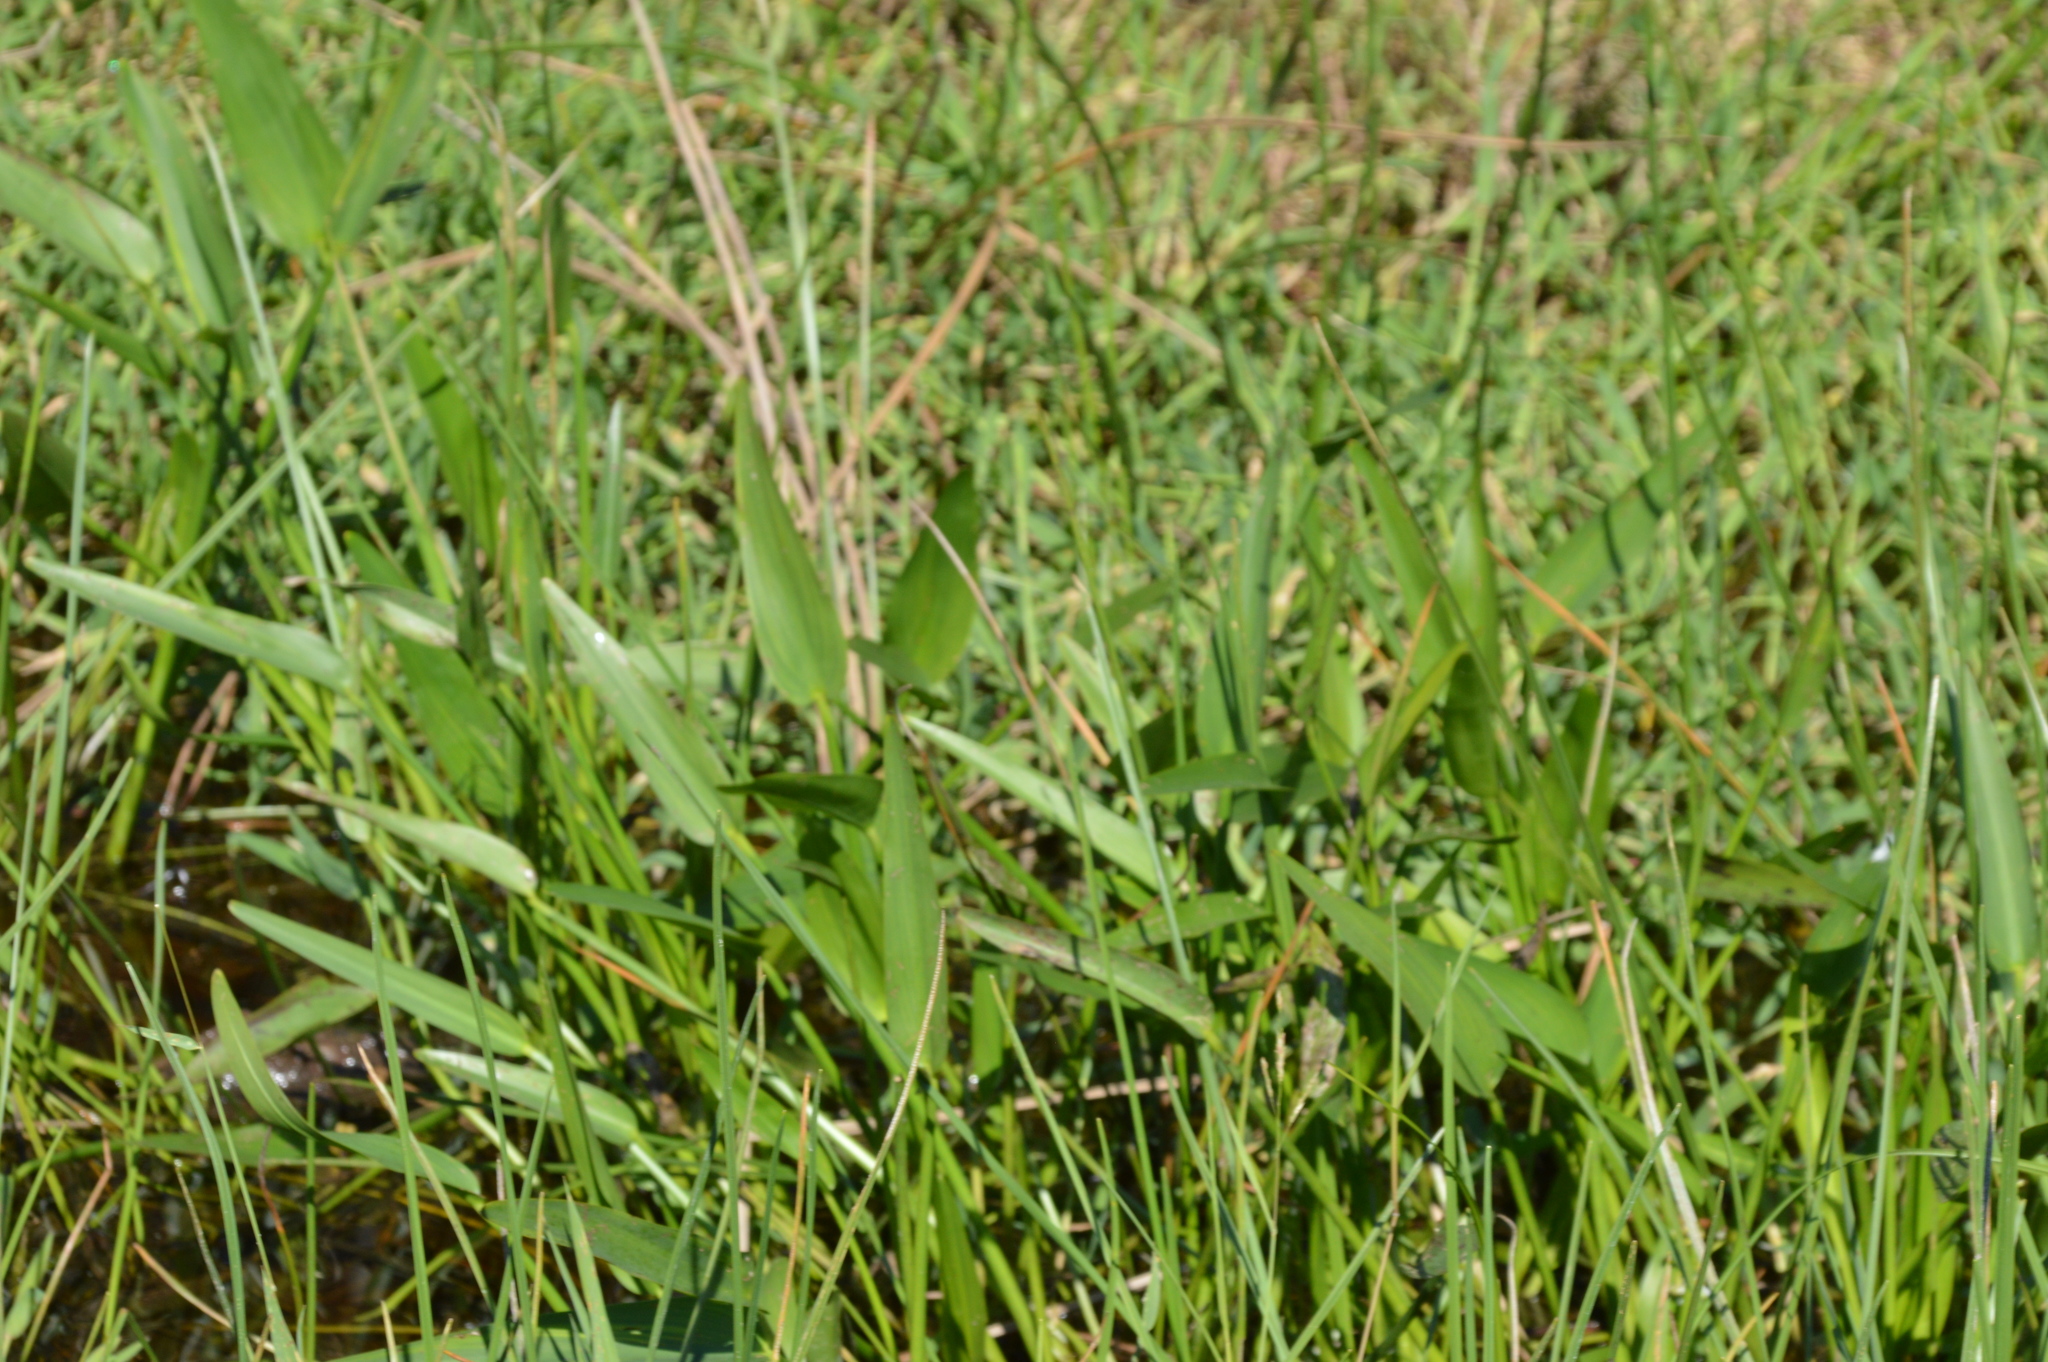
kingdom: Plantae
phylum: Tracheophyta
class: Liliopsida
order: Commelinales
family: Pontederiaceae
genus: Pontederia
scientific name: Pontederia cordata
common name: Pickerelweed
